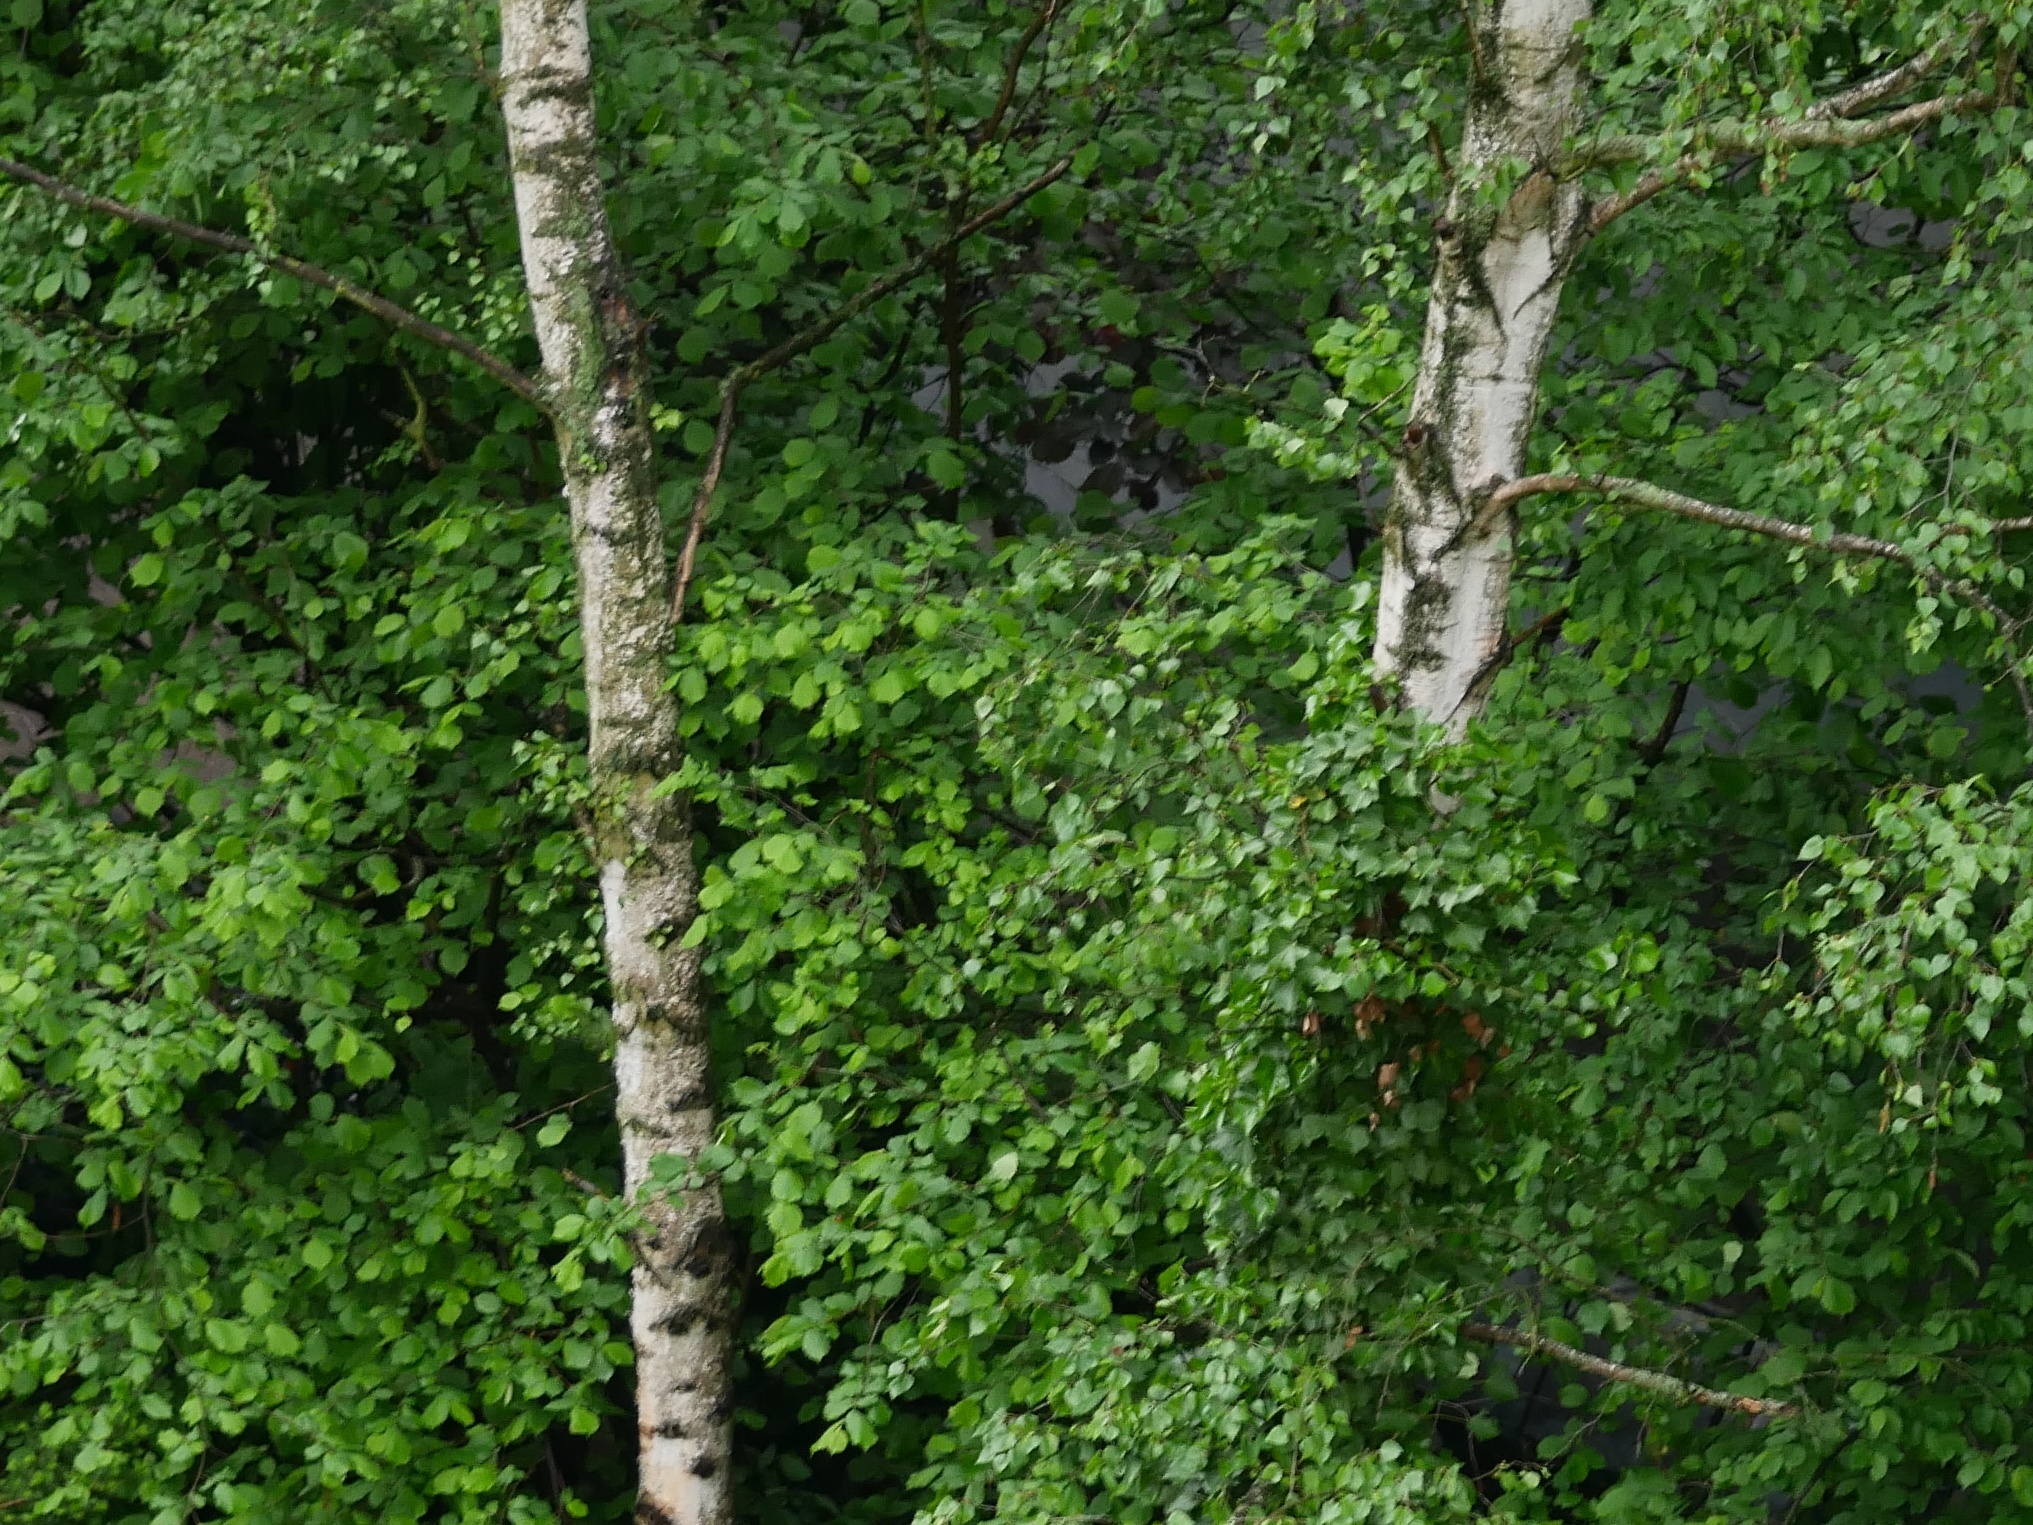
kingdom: Plantae
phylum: Tracheophyta
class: Magnoliopsida
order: Fagales
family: Betulaceae
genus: Betula
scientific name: Betula pendula
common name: Silver birch
